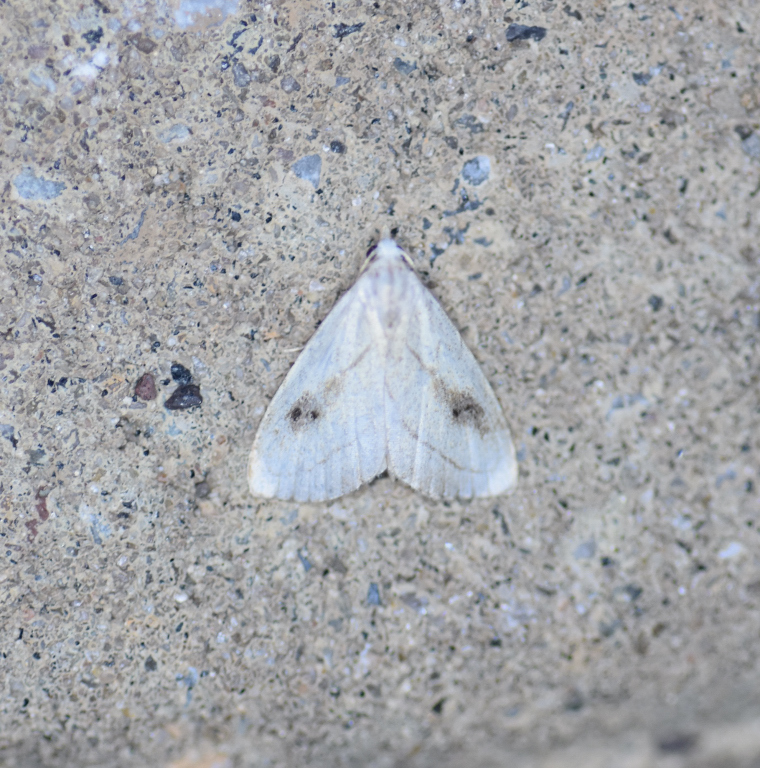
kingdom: Animalia
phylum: Arthropoda
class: Insecta
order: Lepidoptera
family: Erebidae
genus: Rivula
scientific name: Rivula propinqualis
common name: Spotted grass moth
